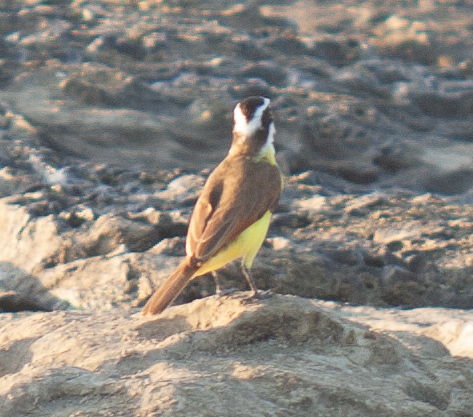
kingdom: Animalia
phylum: Chordata
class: Aves
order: Passeriformes
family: Tyrannidae
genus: Pitangus
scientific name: Pitangus sulphuratus
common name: Great kiskadee
